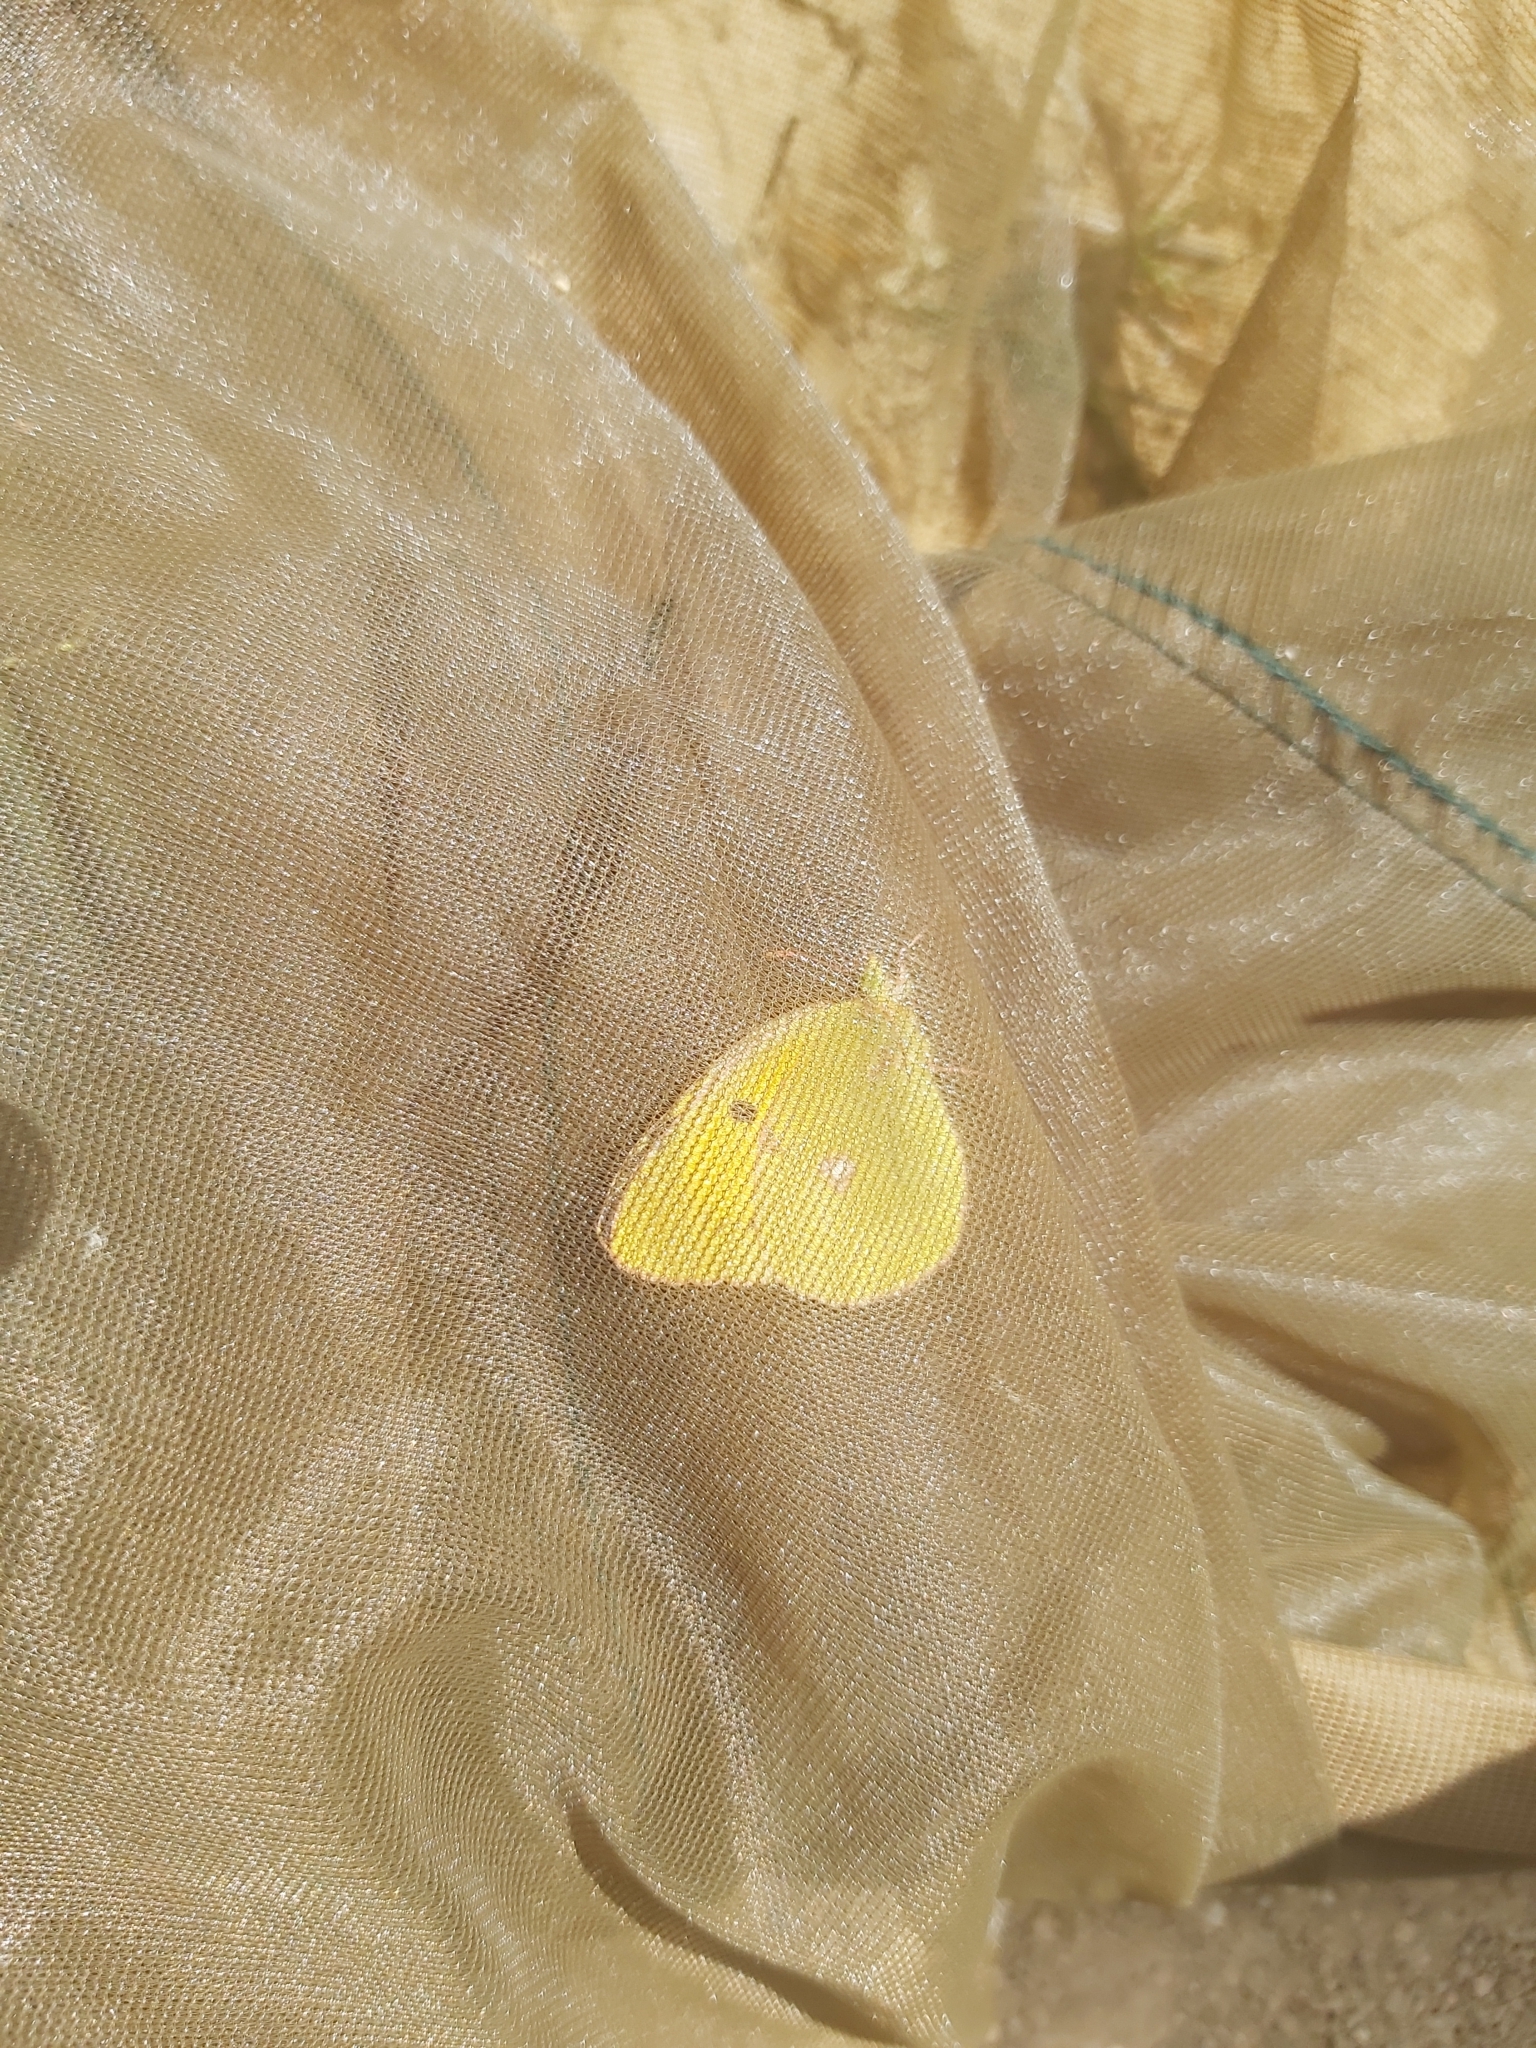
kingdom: Animalia
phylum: Arthropoda
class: Insecta
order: Lepidoptera
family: Pieridae
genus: Colias
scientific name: Colias croceus
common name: Clouded yellow
